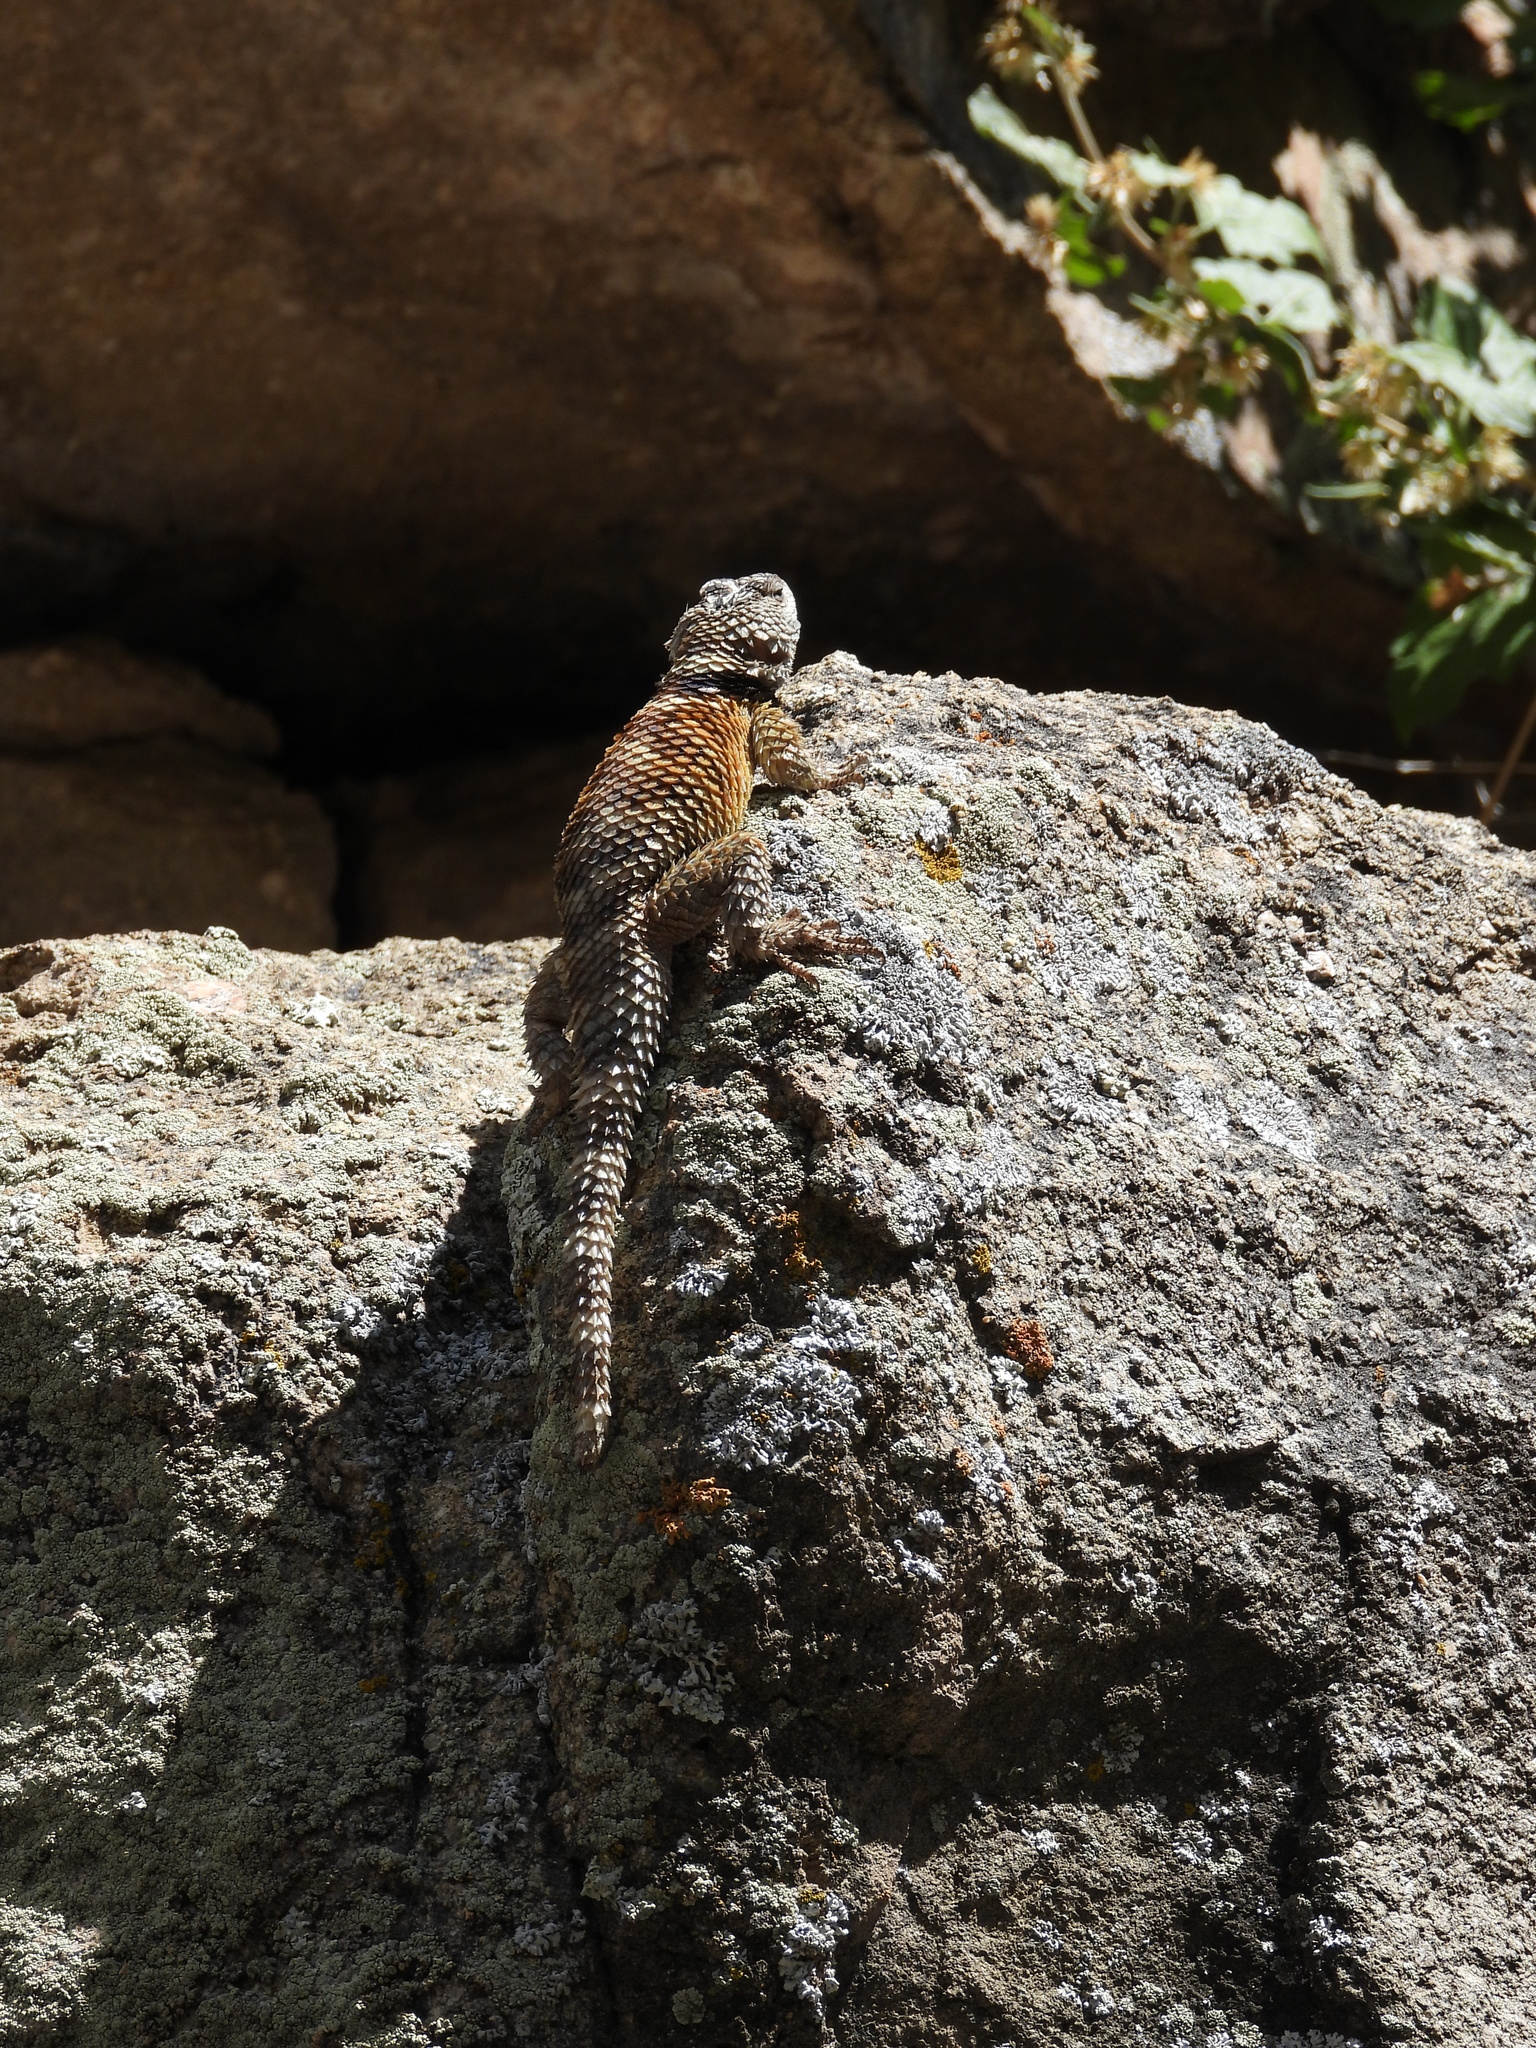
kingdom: Animalia
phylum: Chordata
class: Squamata
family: Phrynosomatidae
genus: Sceloporus
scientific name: Sceloporus poinsettii
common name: Crevice spiny lizard
